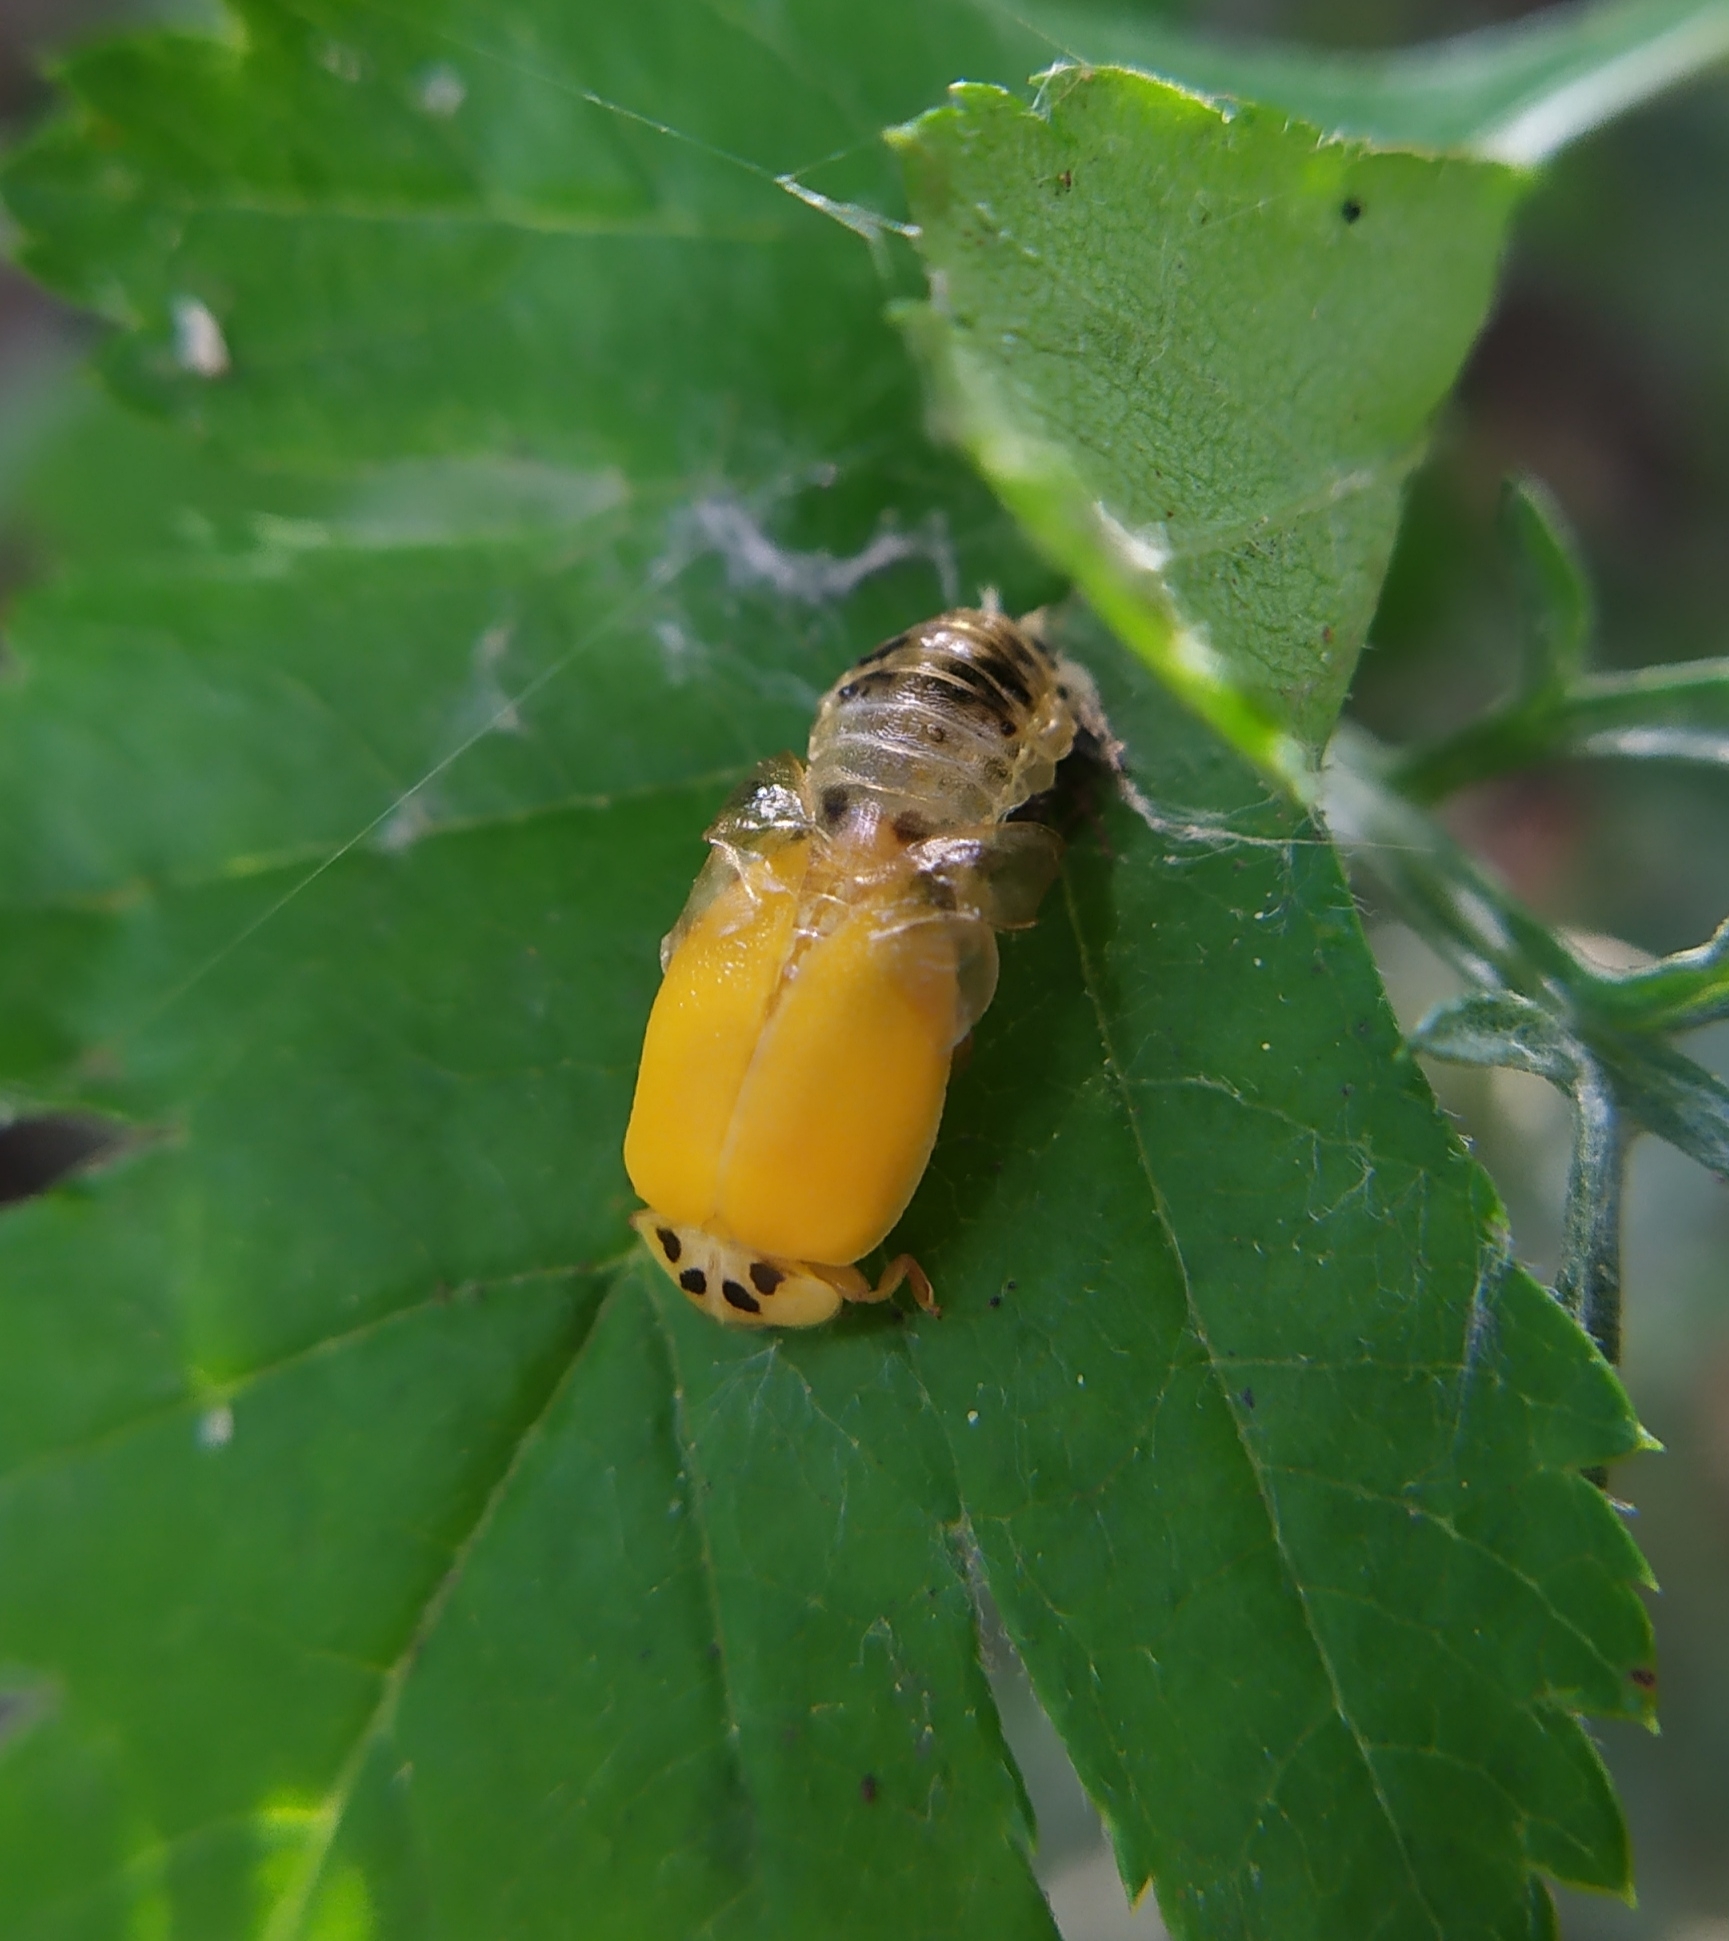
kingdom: Animalia
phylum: Arthropoda
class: Insecta
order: Coleoptera
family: Coccinellidae
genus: Harmonia
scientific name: Harmonia axyridis
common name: Harlequin ladybird
